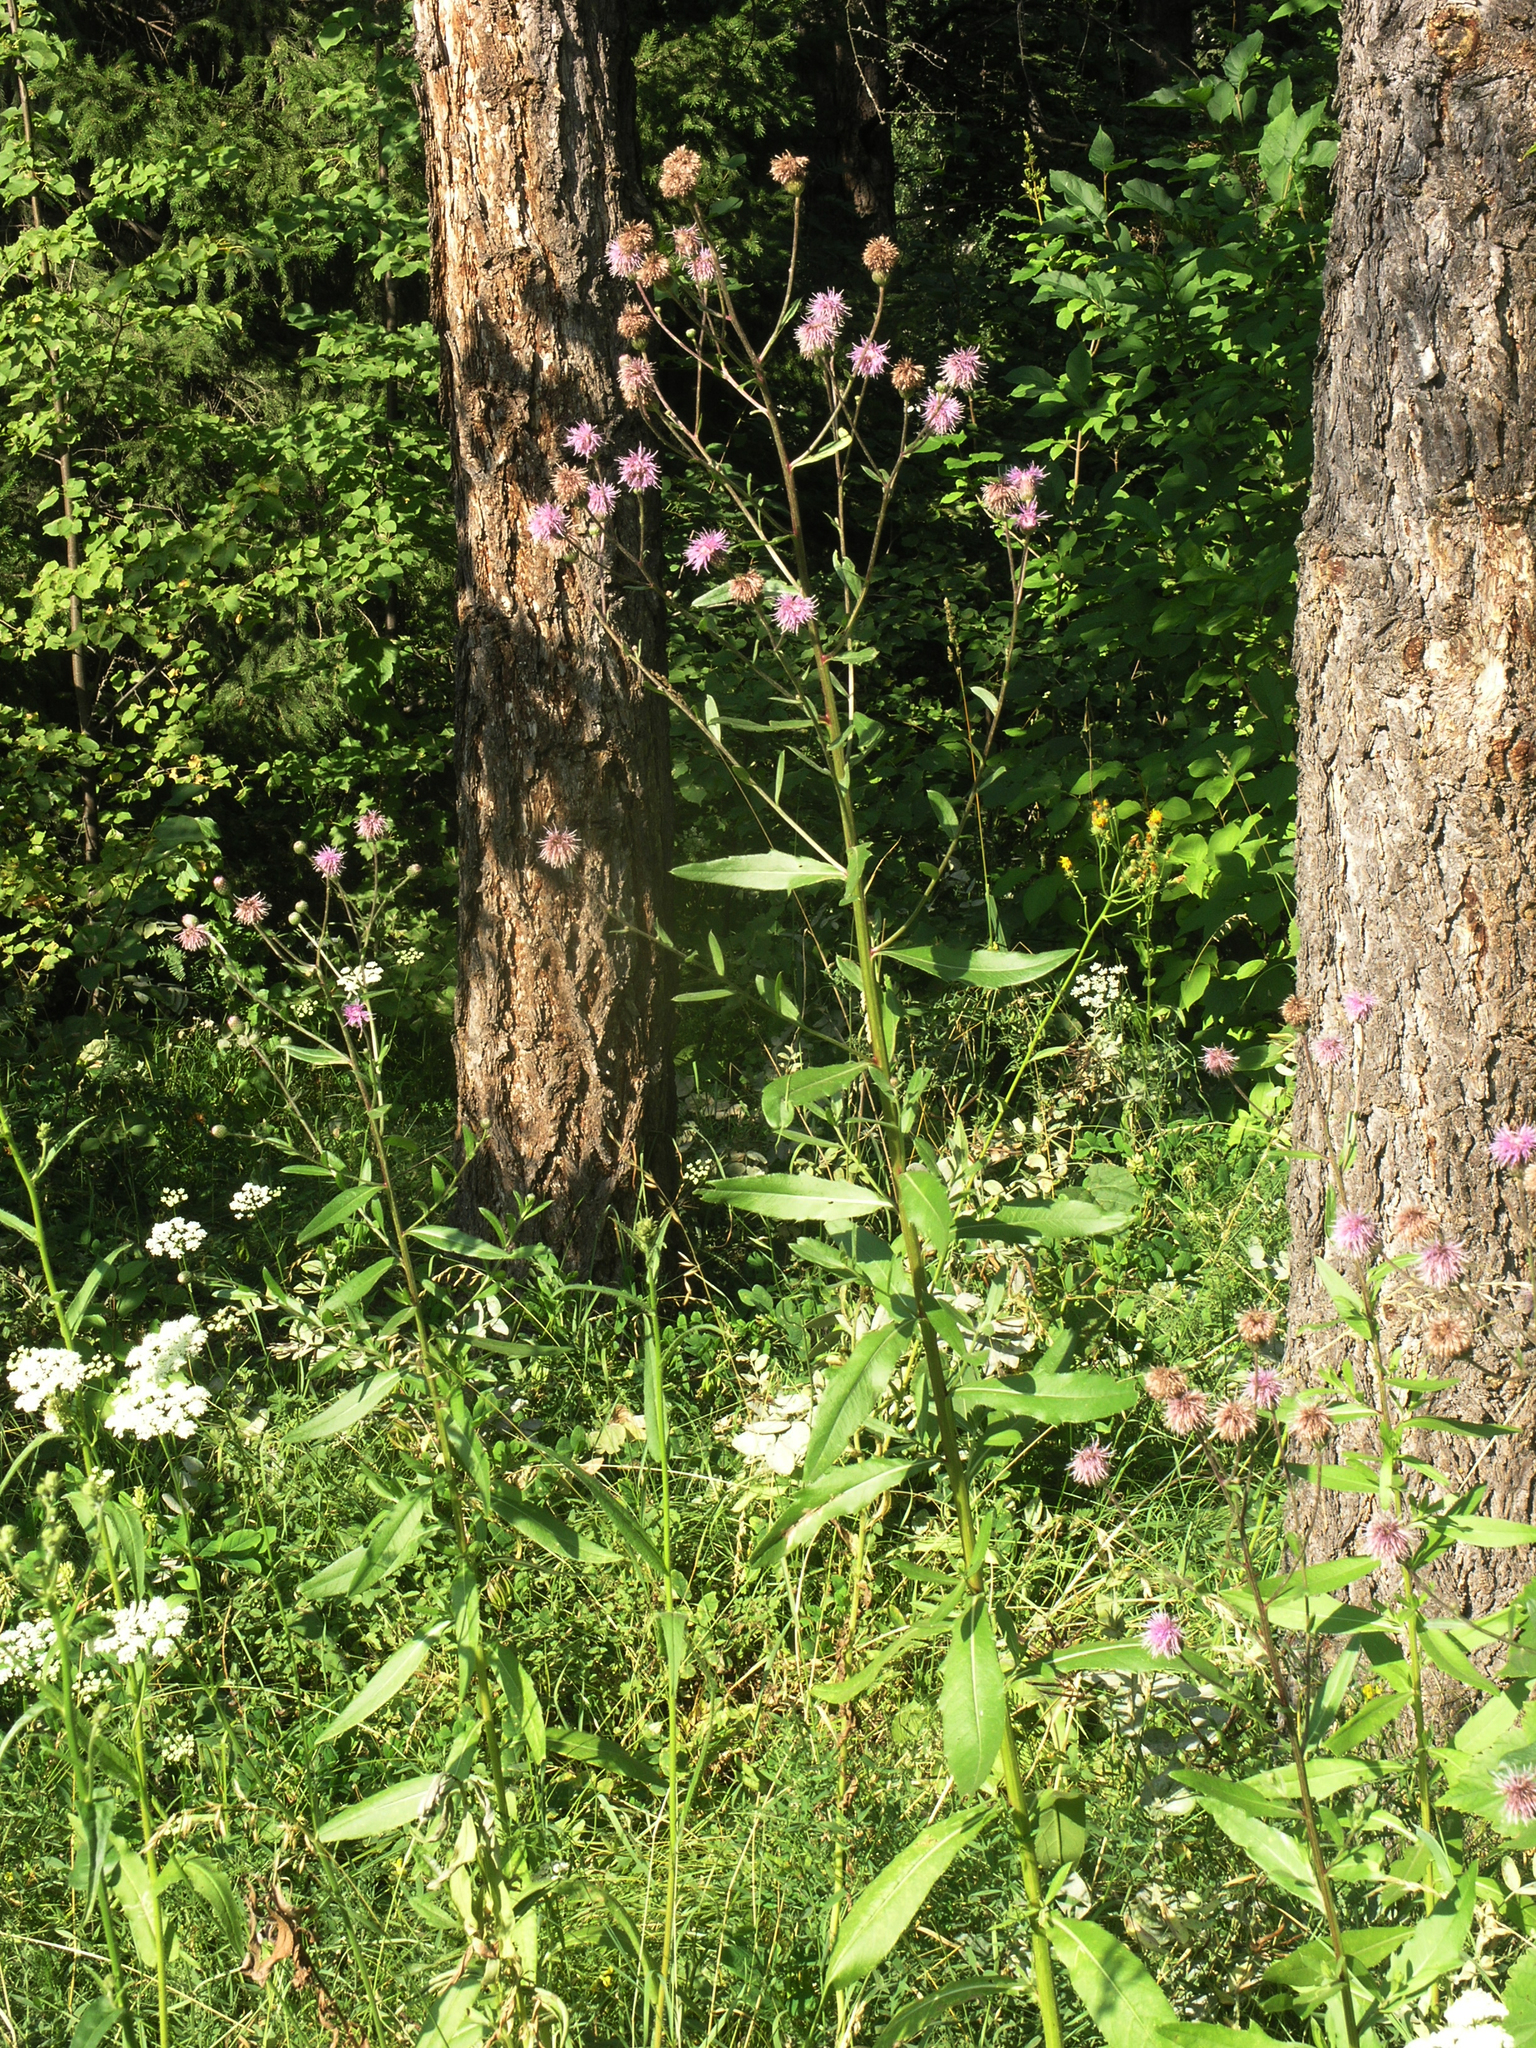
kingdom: Plantae
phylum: Tracheophyta
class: Magnoliopsida
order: Asterales
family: Asteraceae
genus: Cirsium
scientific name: Cirsium arvense
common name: Creeping thistle
